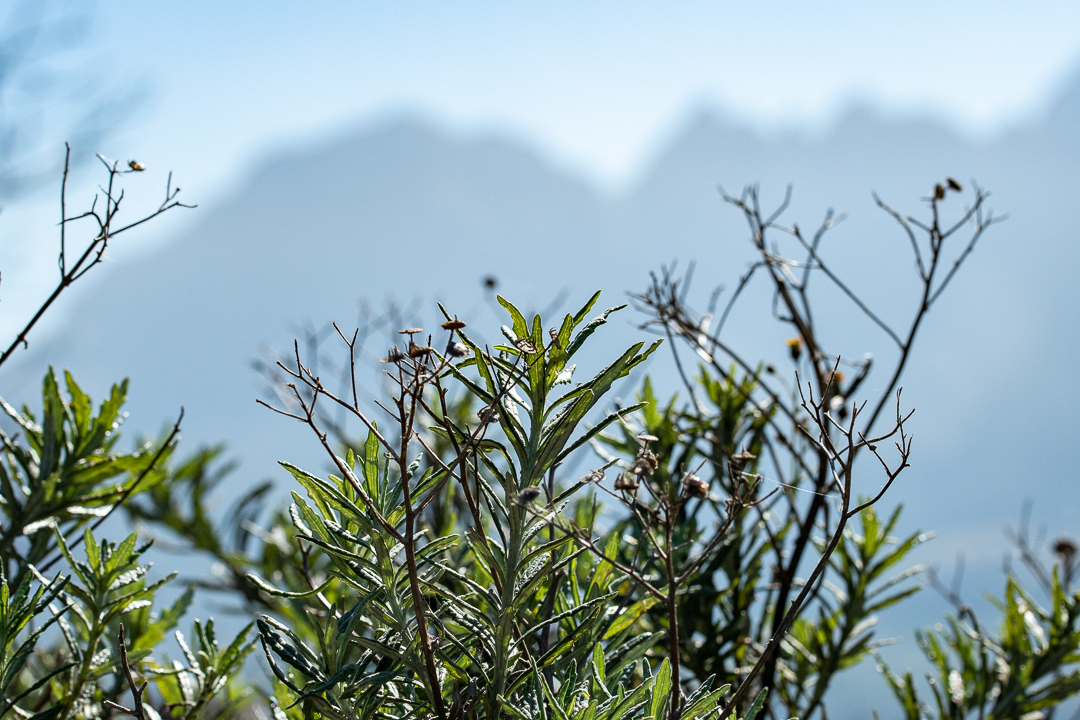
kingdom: Plantae
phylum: Tracheophyta
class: Magnoliopsida
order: Asterales
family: Asteraceae
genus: Senecio
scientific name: Senecio pterophorus
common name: Shoddy ragwort
